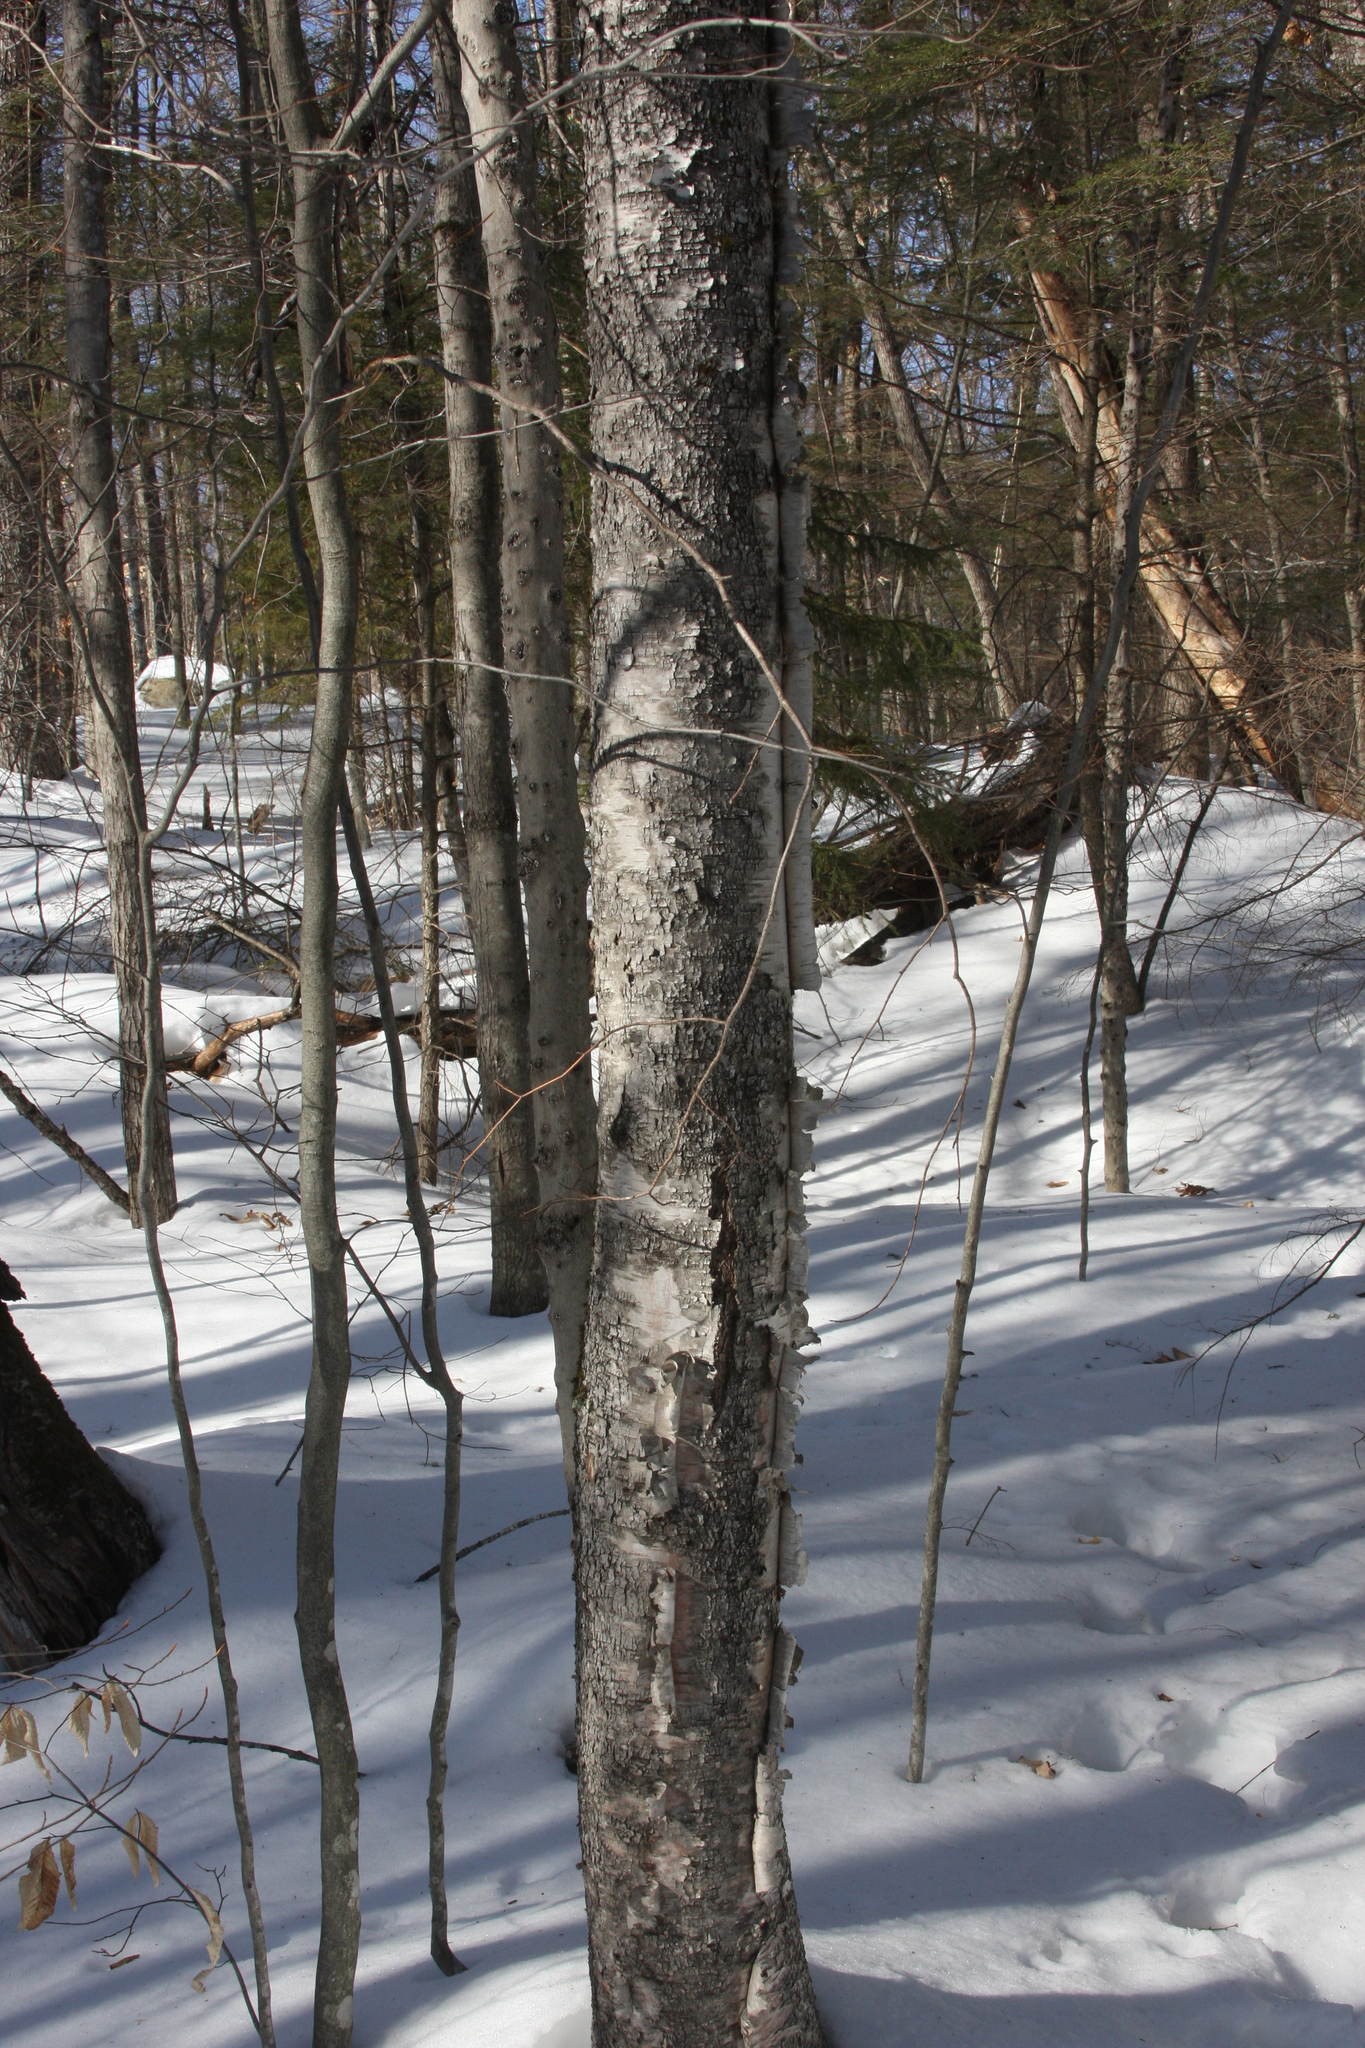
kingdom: Plantae
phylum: Tracheophyta
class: Magnoliopsida
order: Fagales
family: Betulaceae
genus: Betula
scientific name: Betula papyrifera
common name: Paper birch
